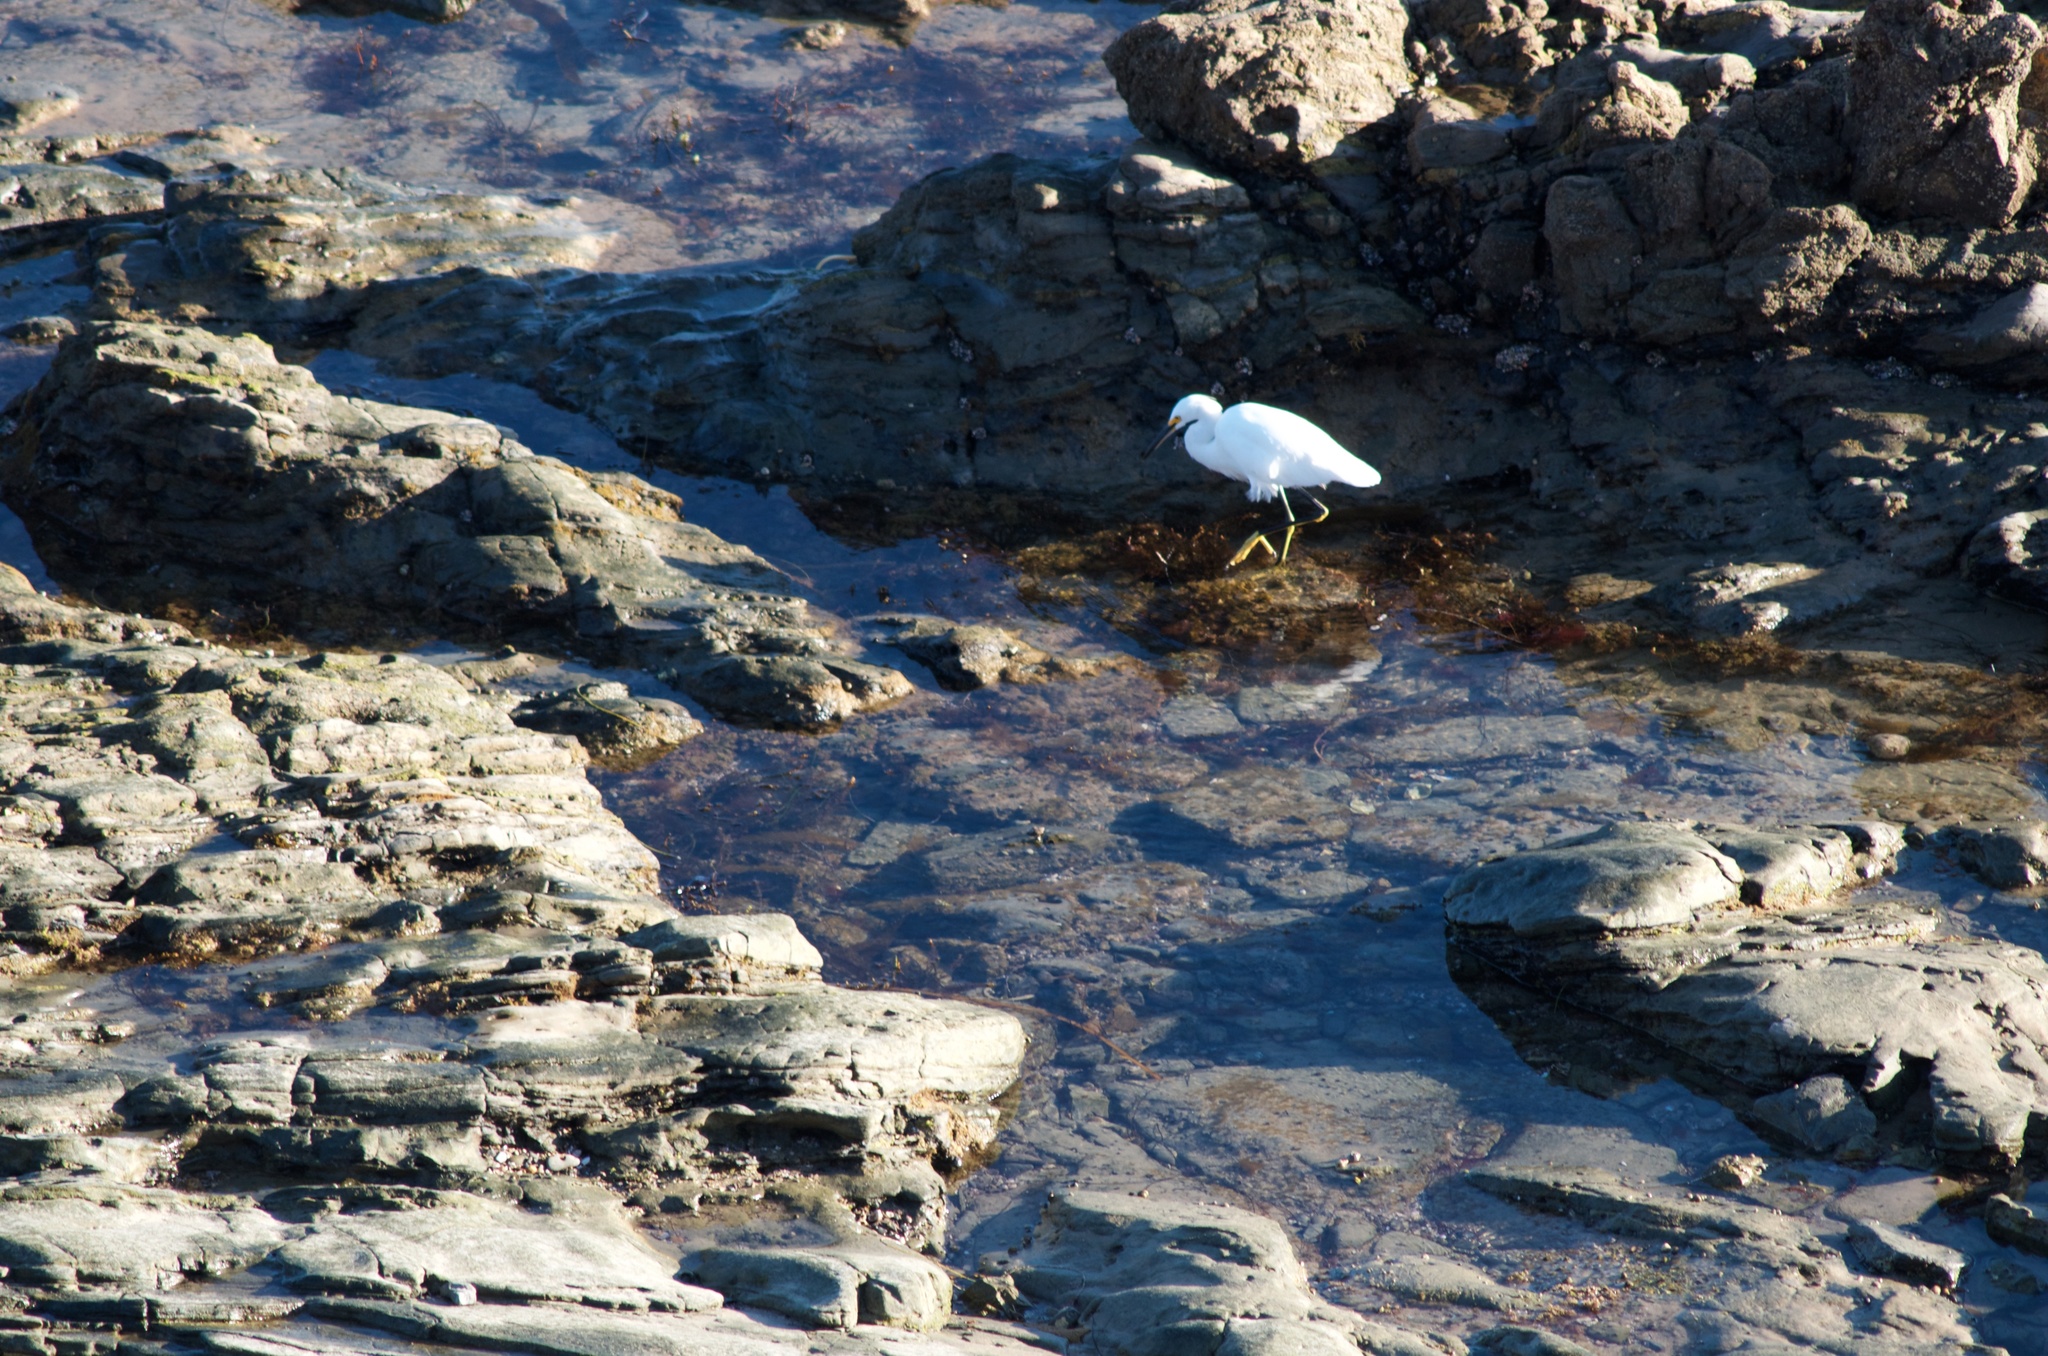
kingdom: Animalia
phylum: Chordata
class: Aves
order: Pelecaniformes
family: Ardeidae
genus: Egretta
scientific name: Egretta thula
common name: Snowy egret
